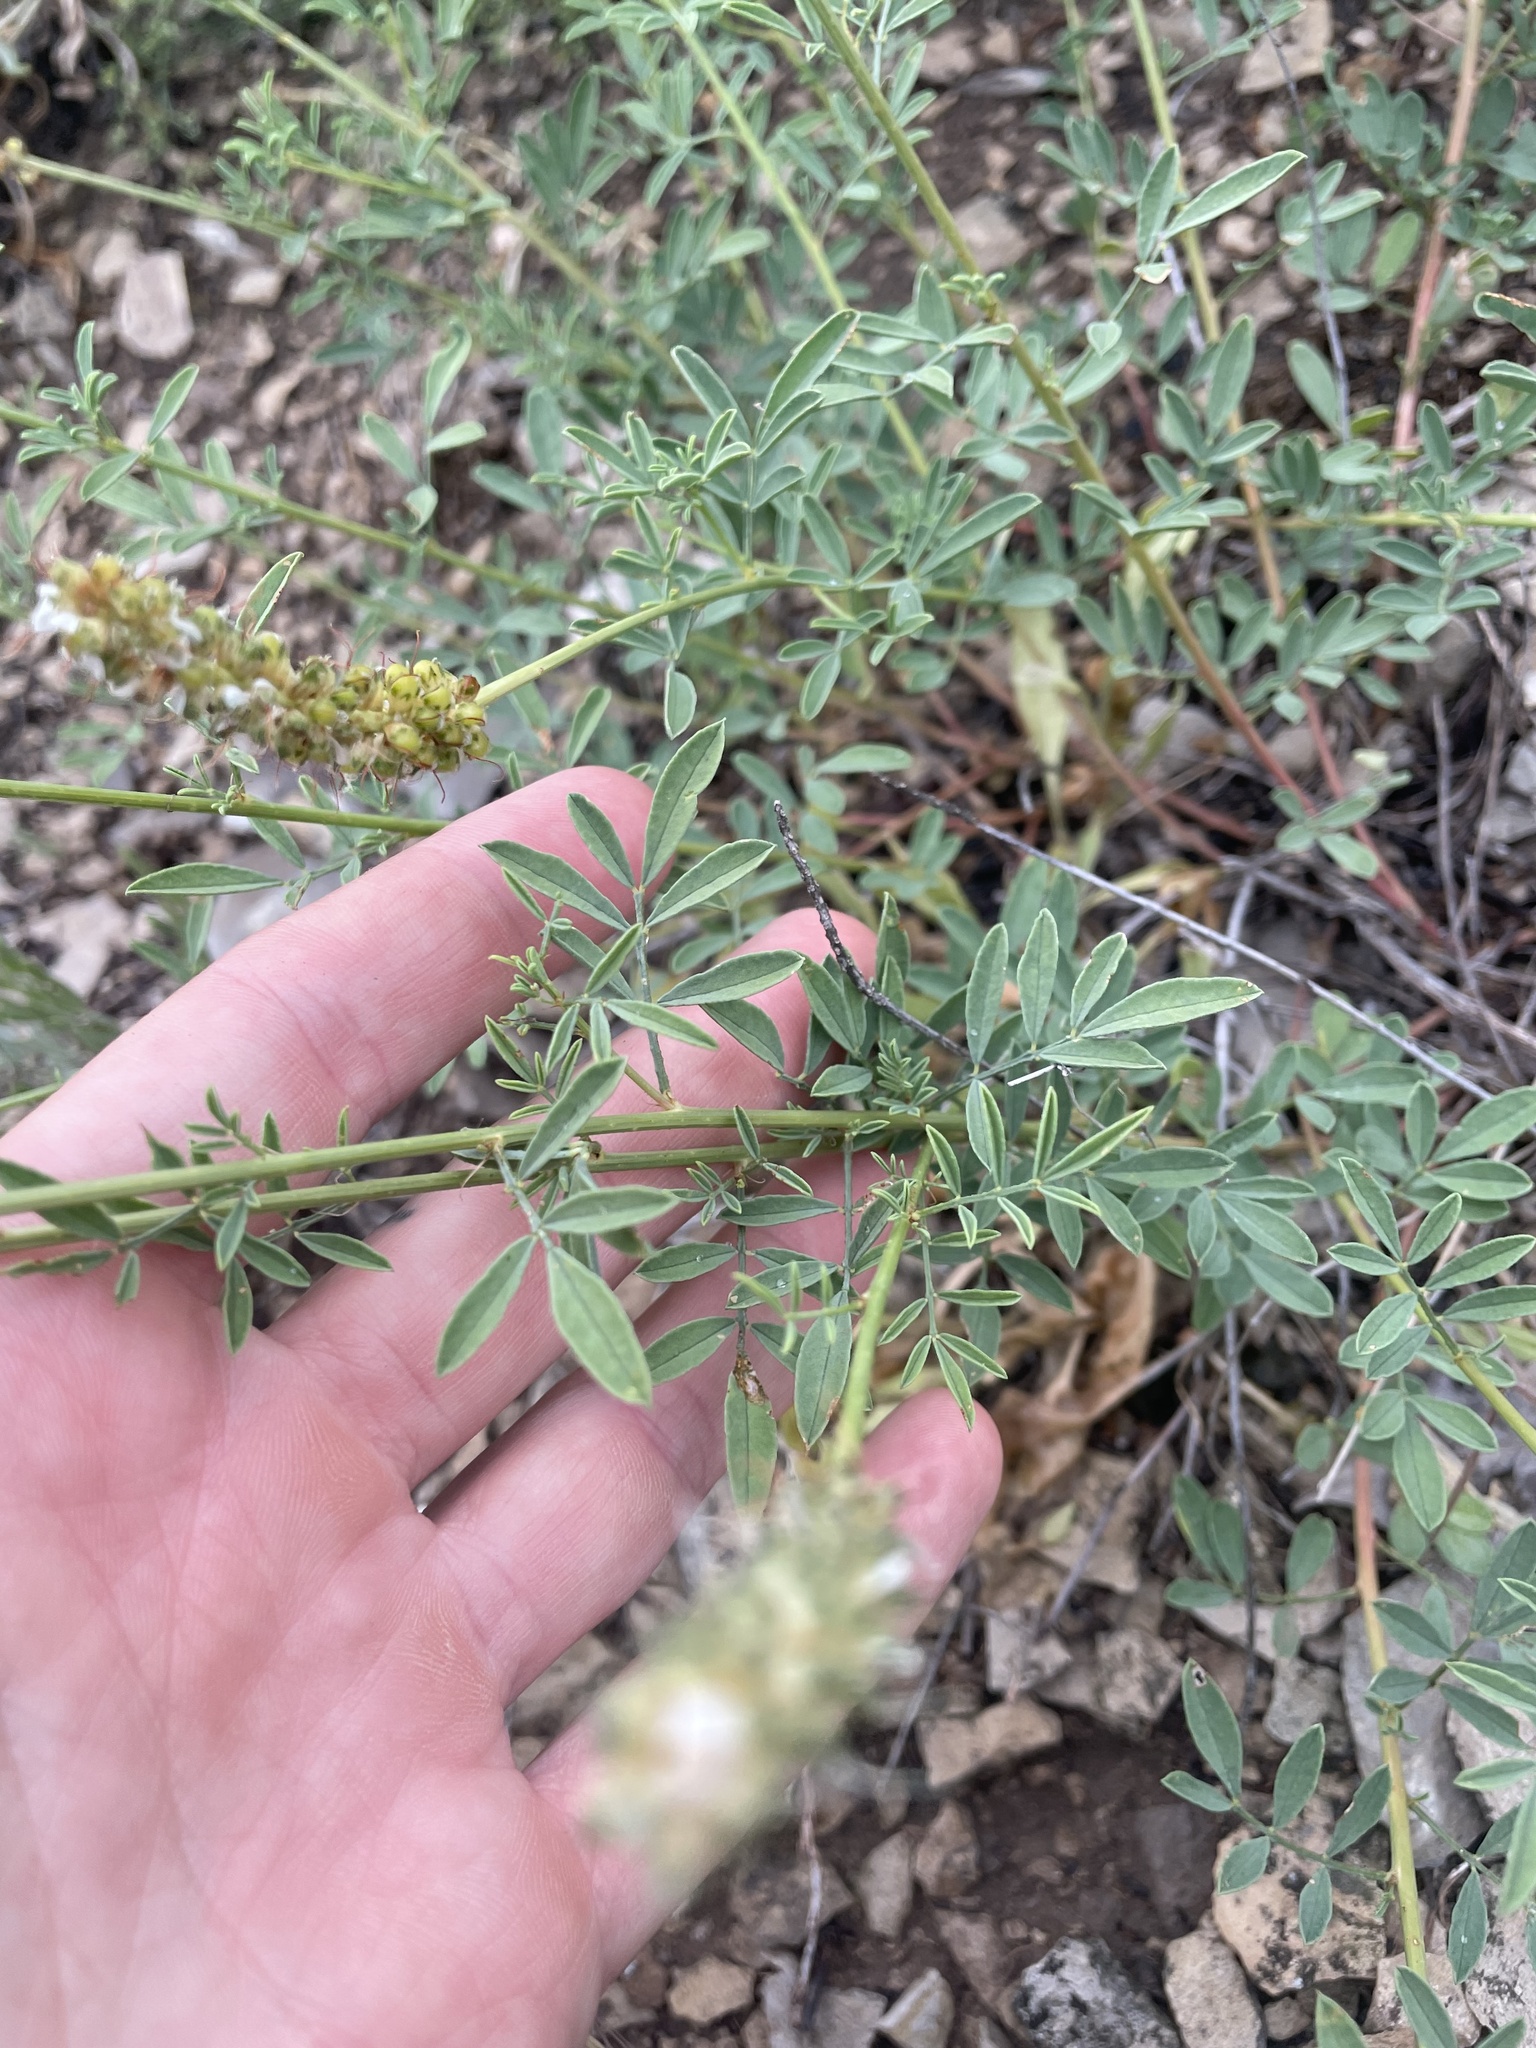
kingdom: Plantae
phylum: Tracheophyta
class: Magnoliopsida
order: Fabales
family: Fabaceae
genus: Dalea
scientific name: Dalea candida
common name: White prairie-clover
